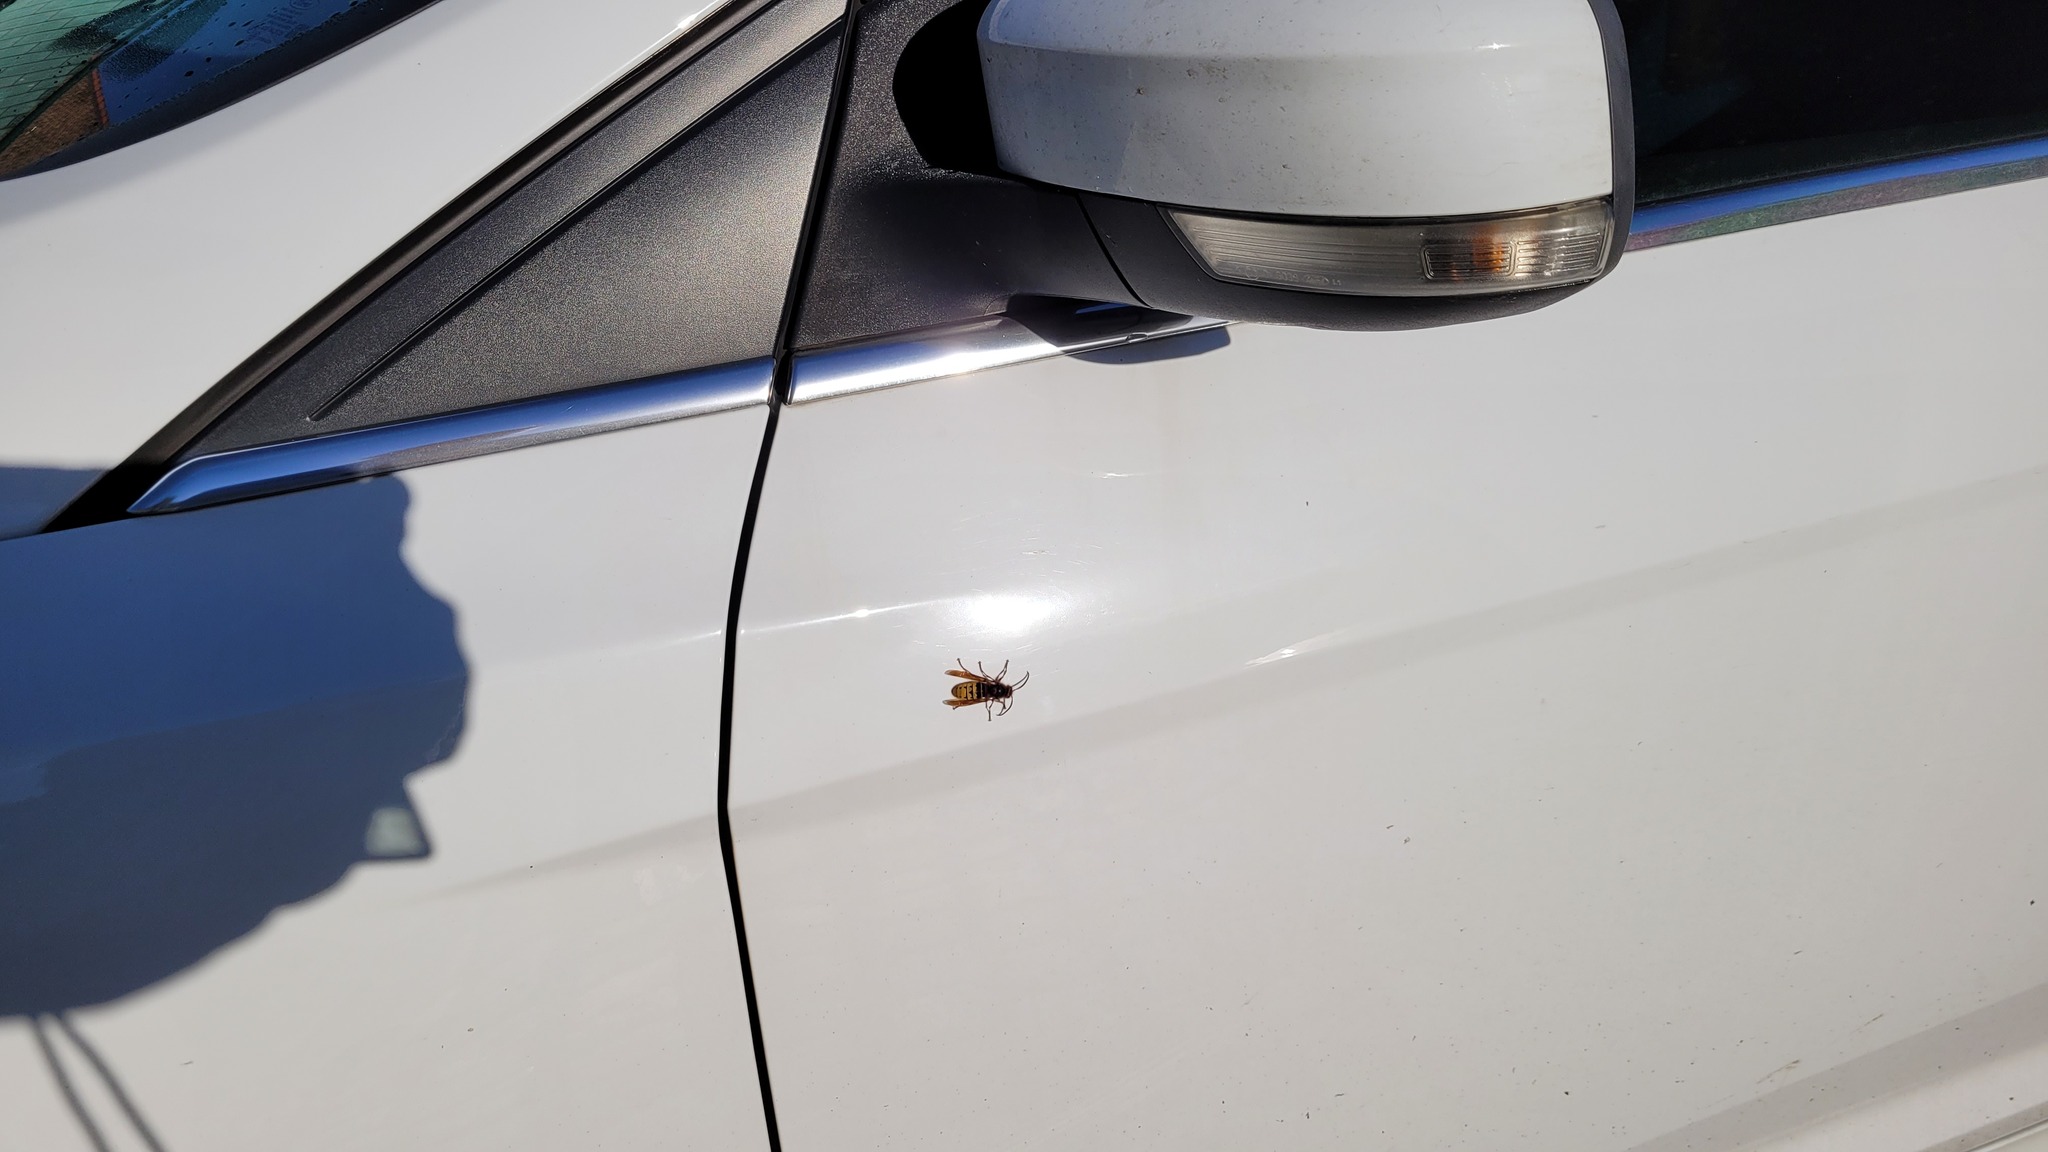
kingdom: Animalia
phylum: Arthropoda
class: Insecta
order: Hymenoptera
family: Vespidae
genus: Vespa
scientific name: Vespa crabro
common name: Hornet
